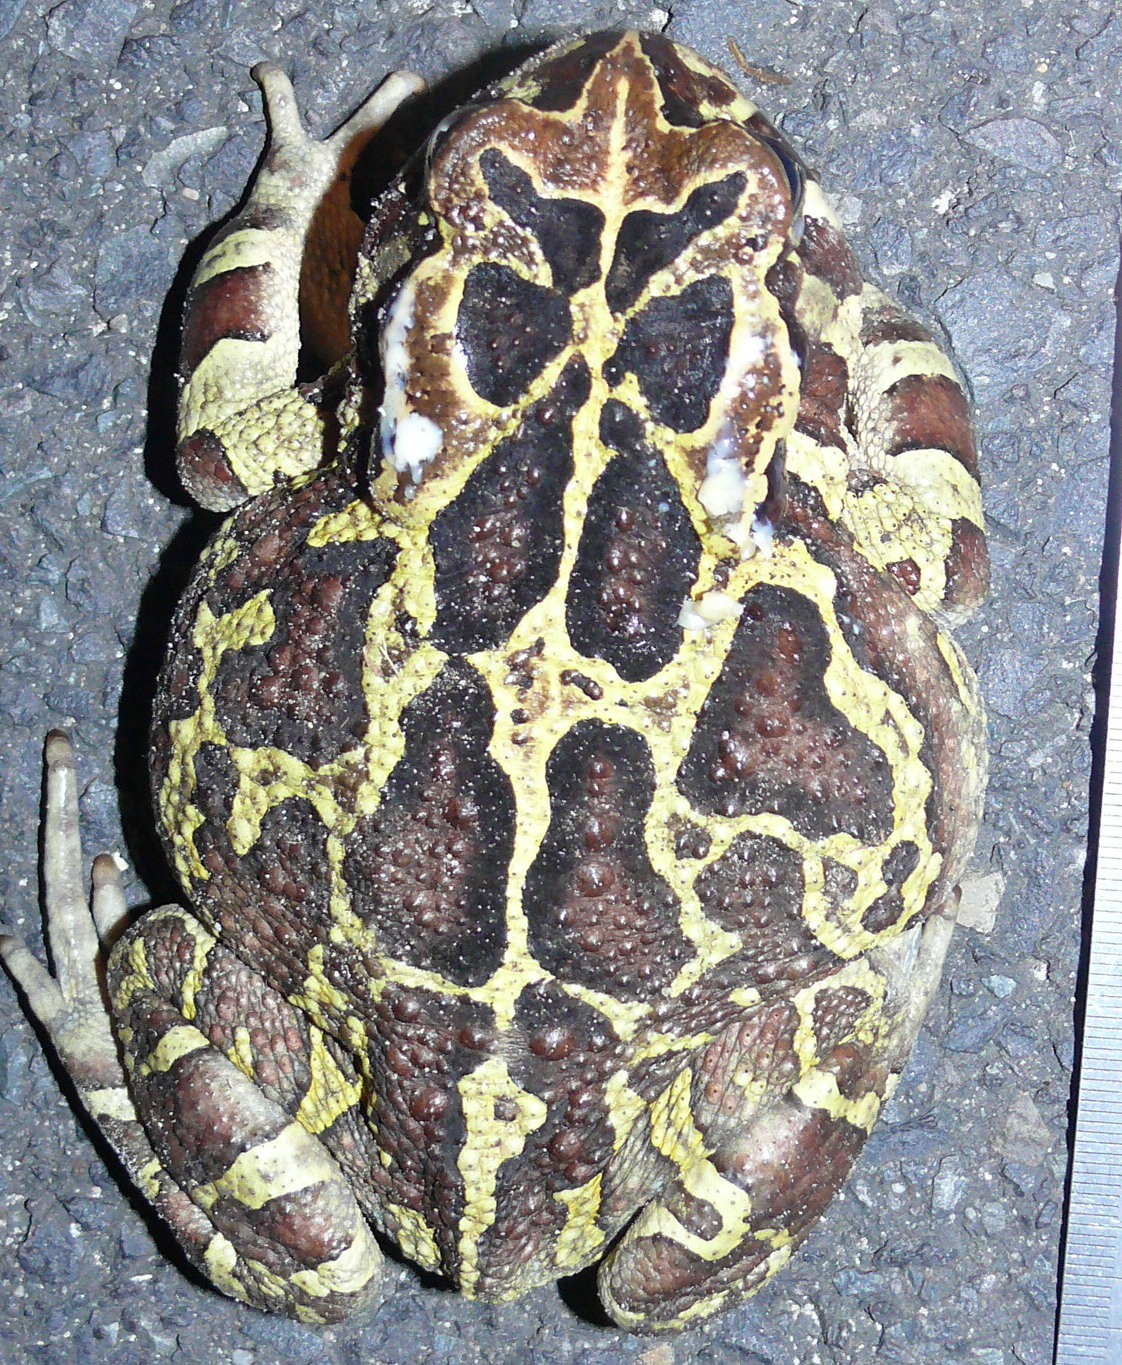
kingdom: Animalia
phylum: Chordata
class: Amphibia
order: Anura
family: Bufonidae
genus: Sclerophrys
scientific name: Sclerophrys pantherina
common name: Panther toad
